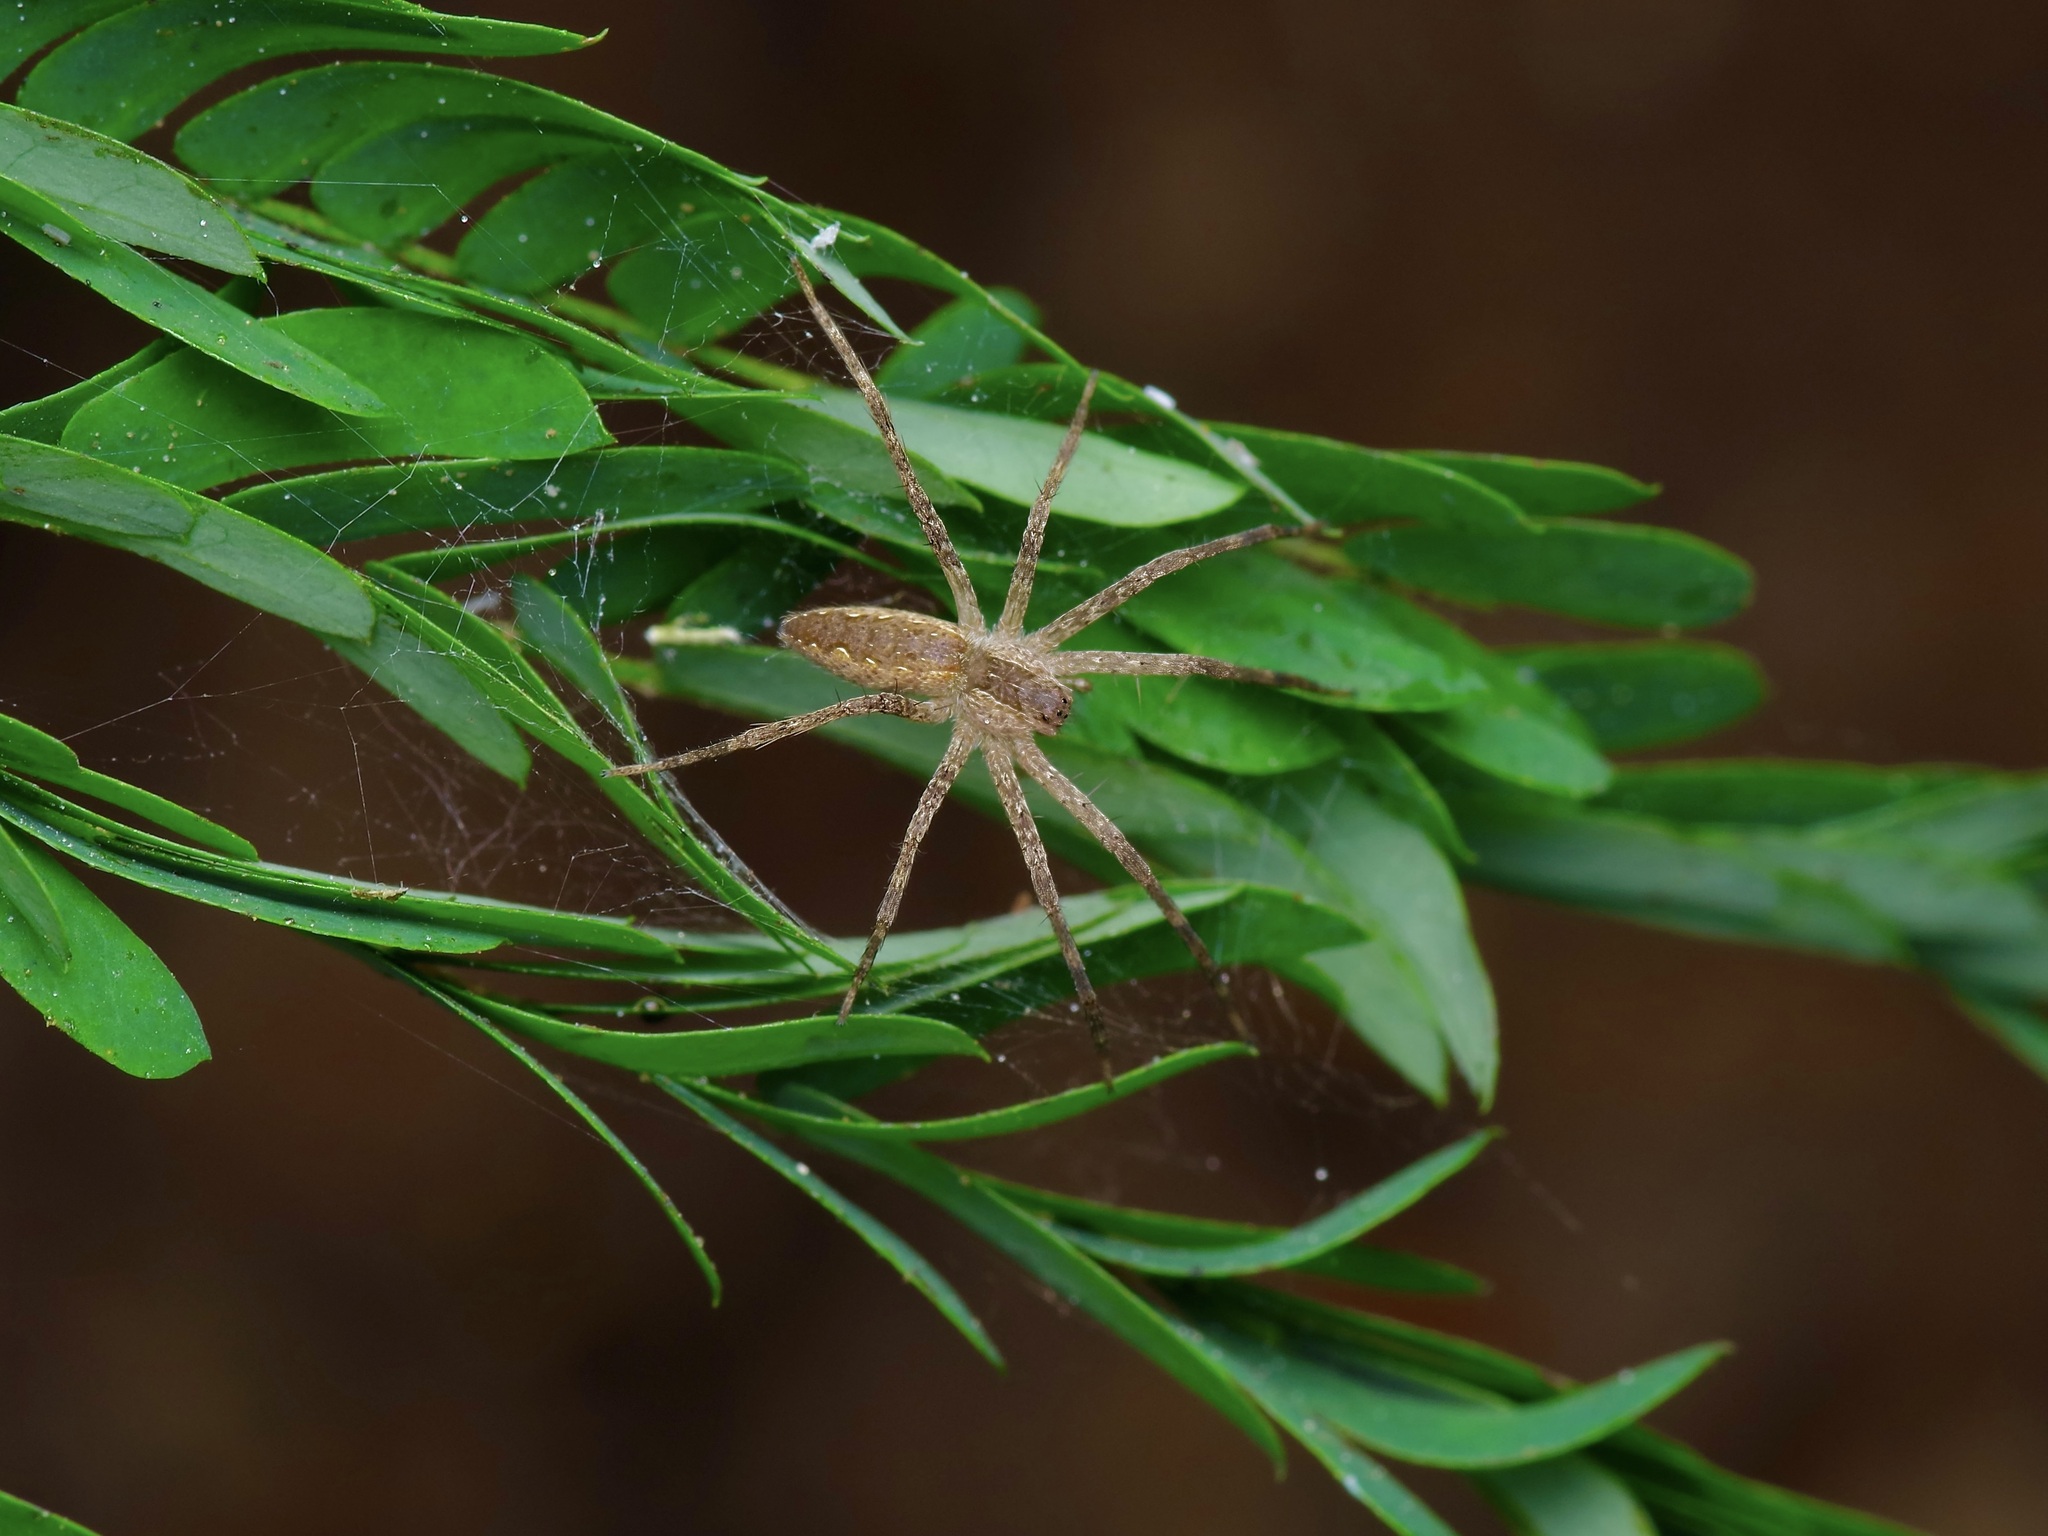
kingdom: Animalia
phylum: Arthropoda
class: Arachnida
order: Araneae
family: Pisauridae
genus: Pisaurina
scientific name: Pisaurina mira
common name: American nursery web spider
